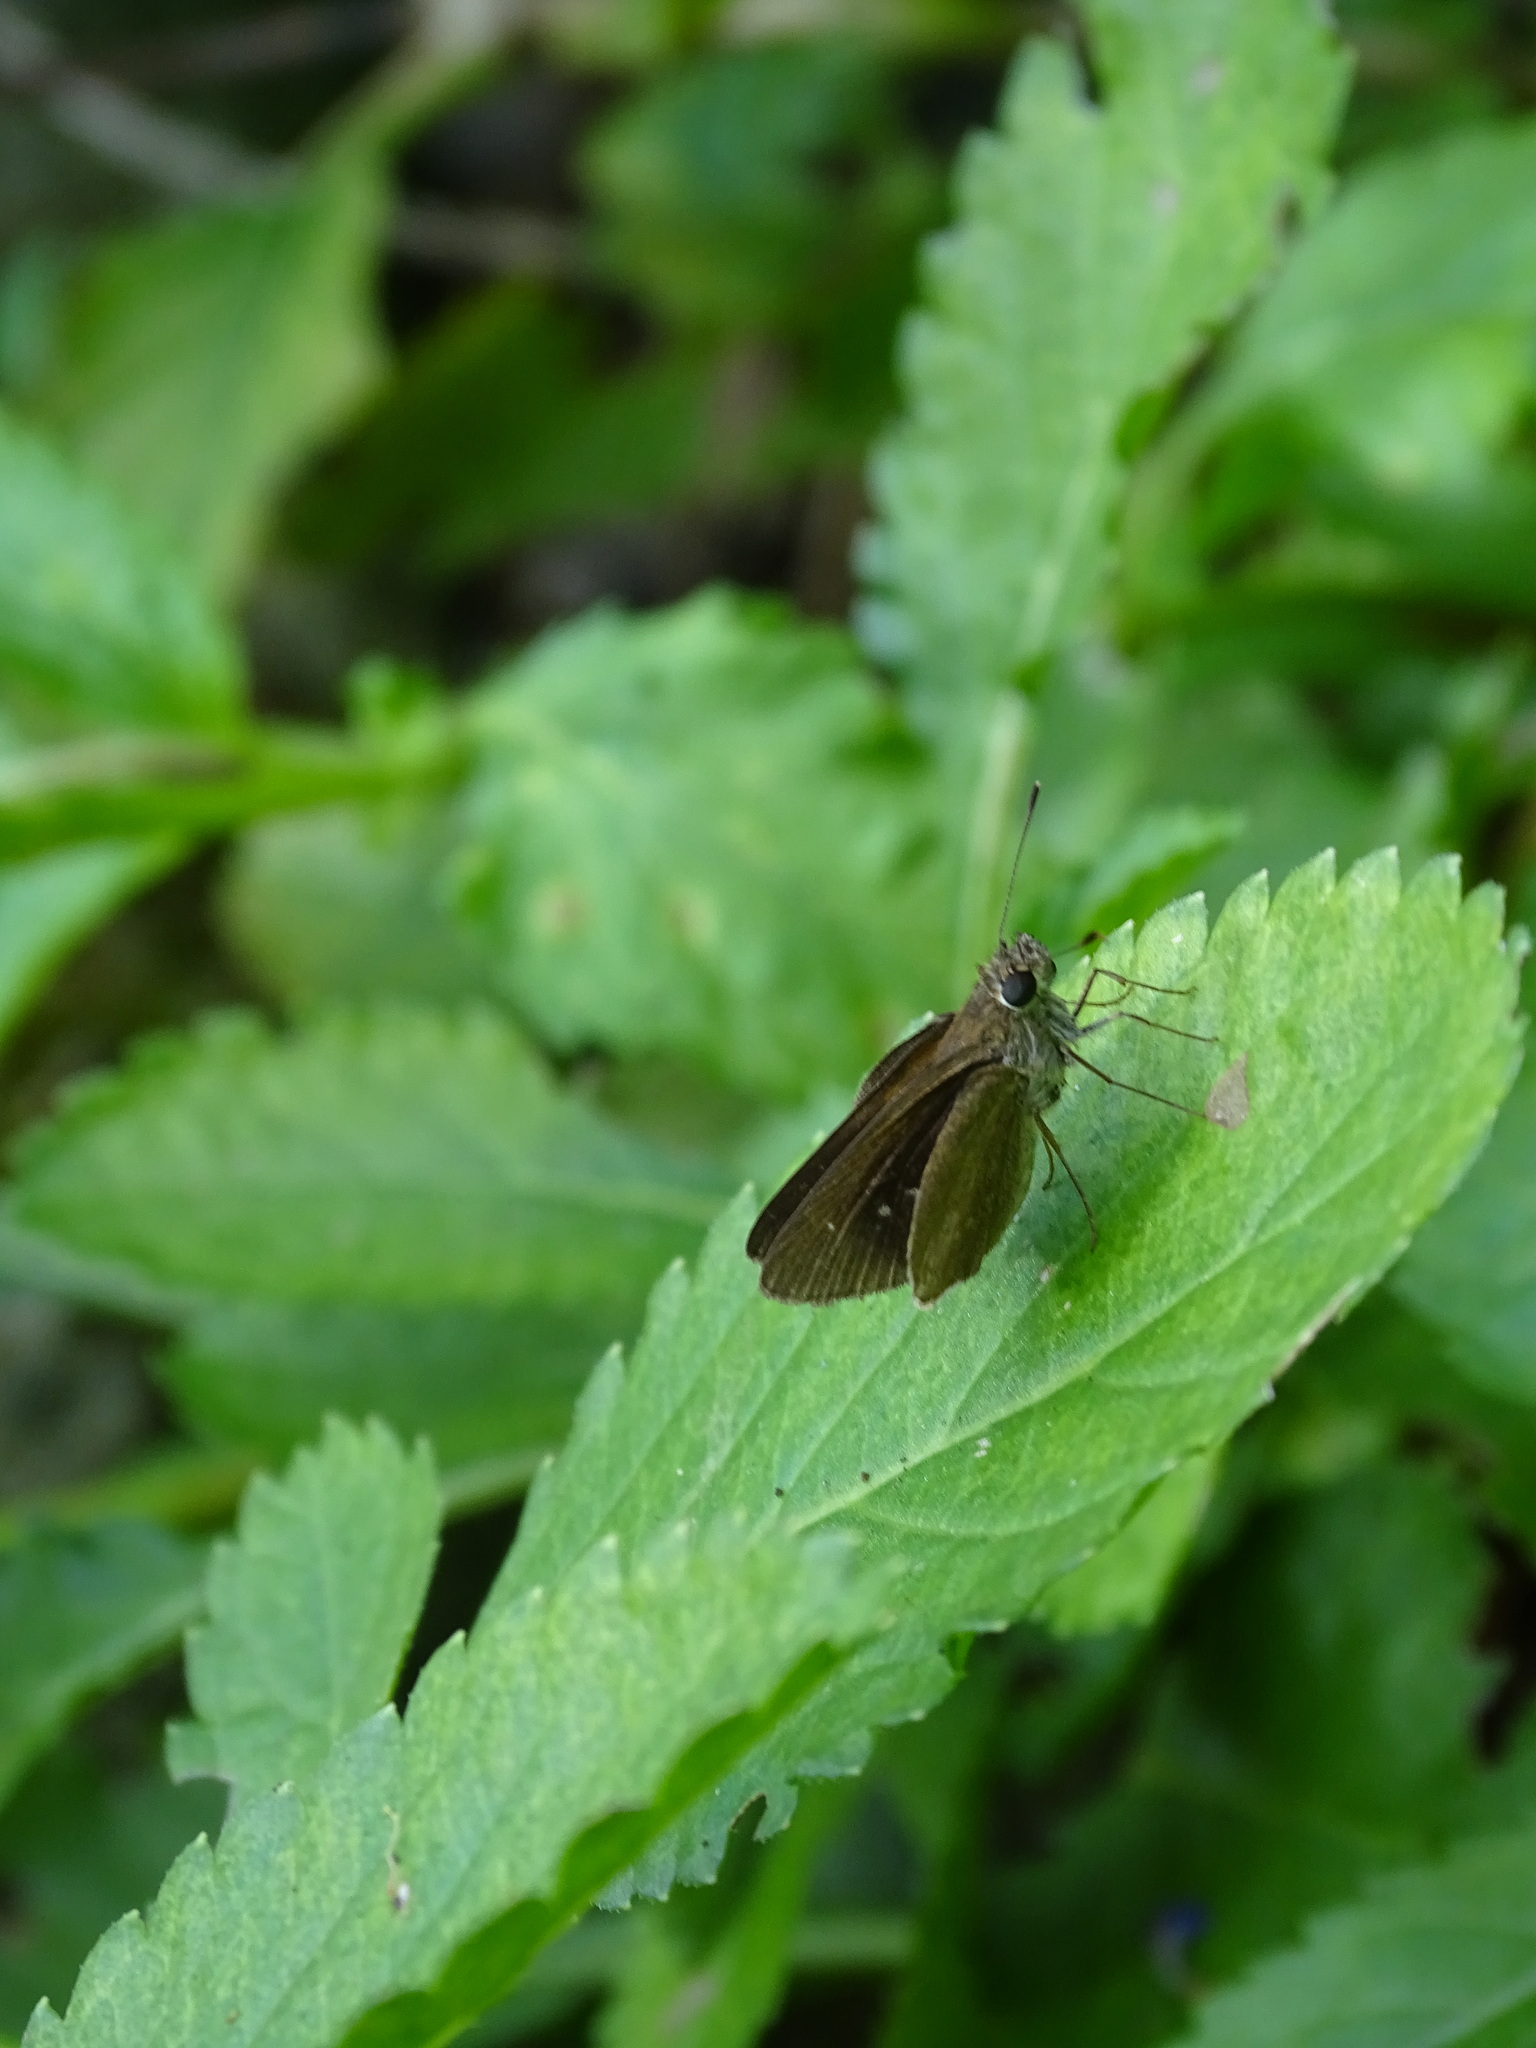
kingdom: Animalia
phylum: Arthropoda
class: Insecta
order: Lepidoptera
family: Hesperiidae
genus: Cymaenes
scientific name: Cymaenes tripunctus
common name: Dingy dotted skipper
